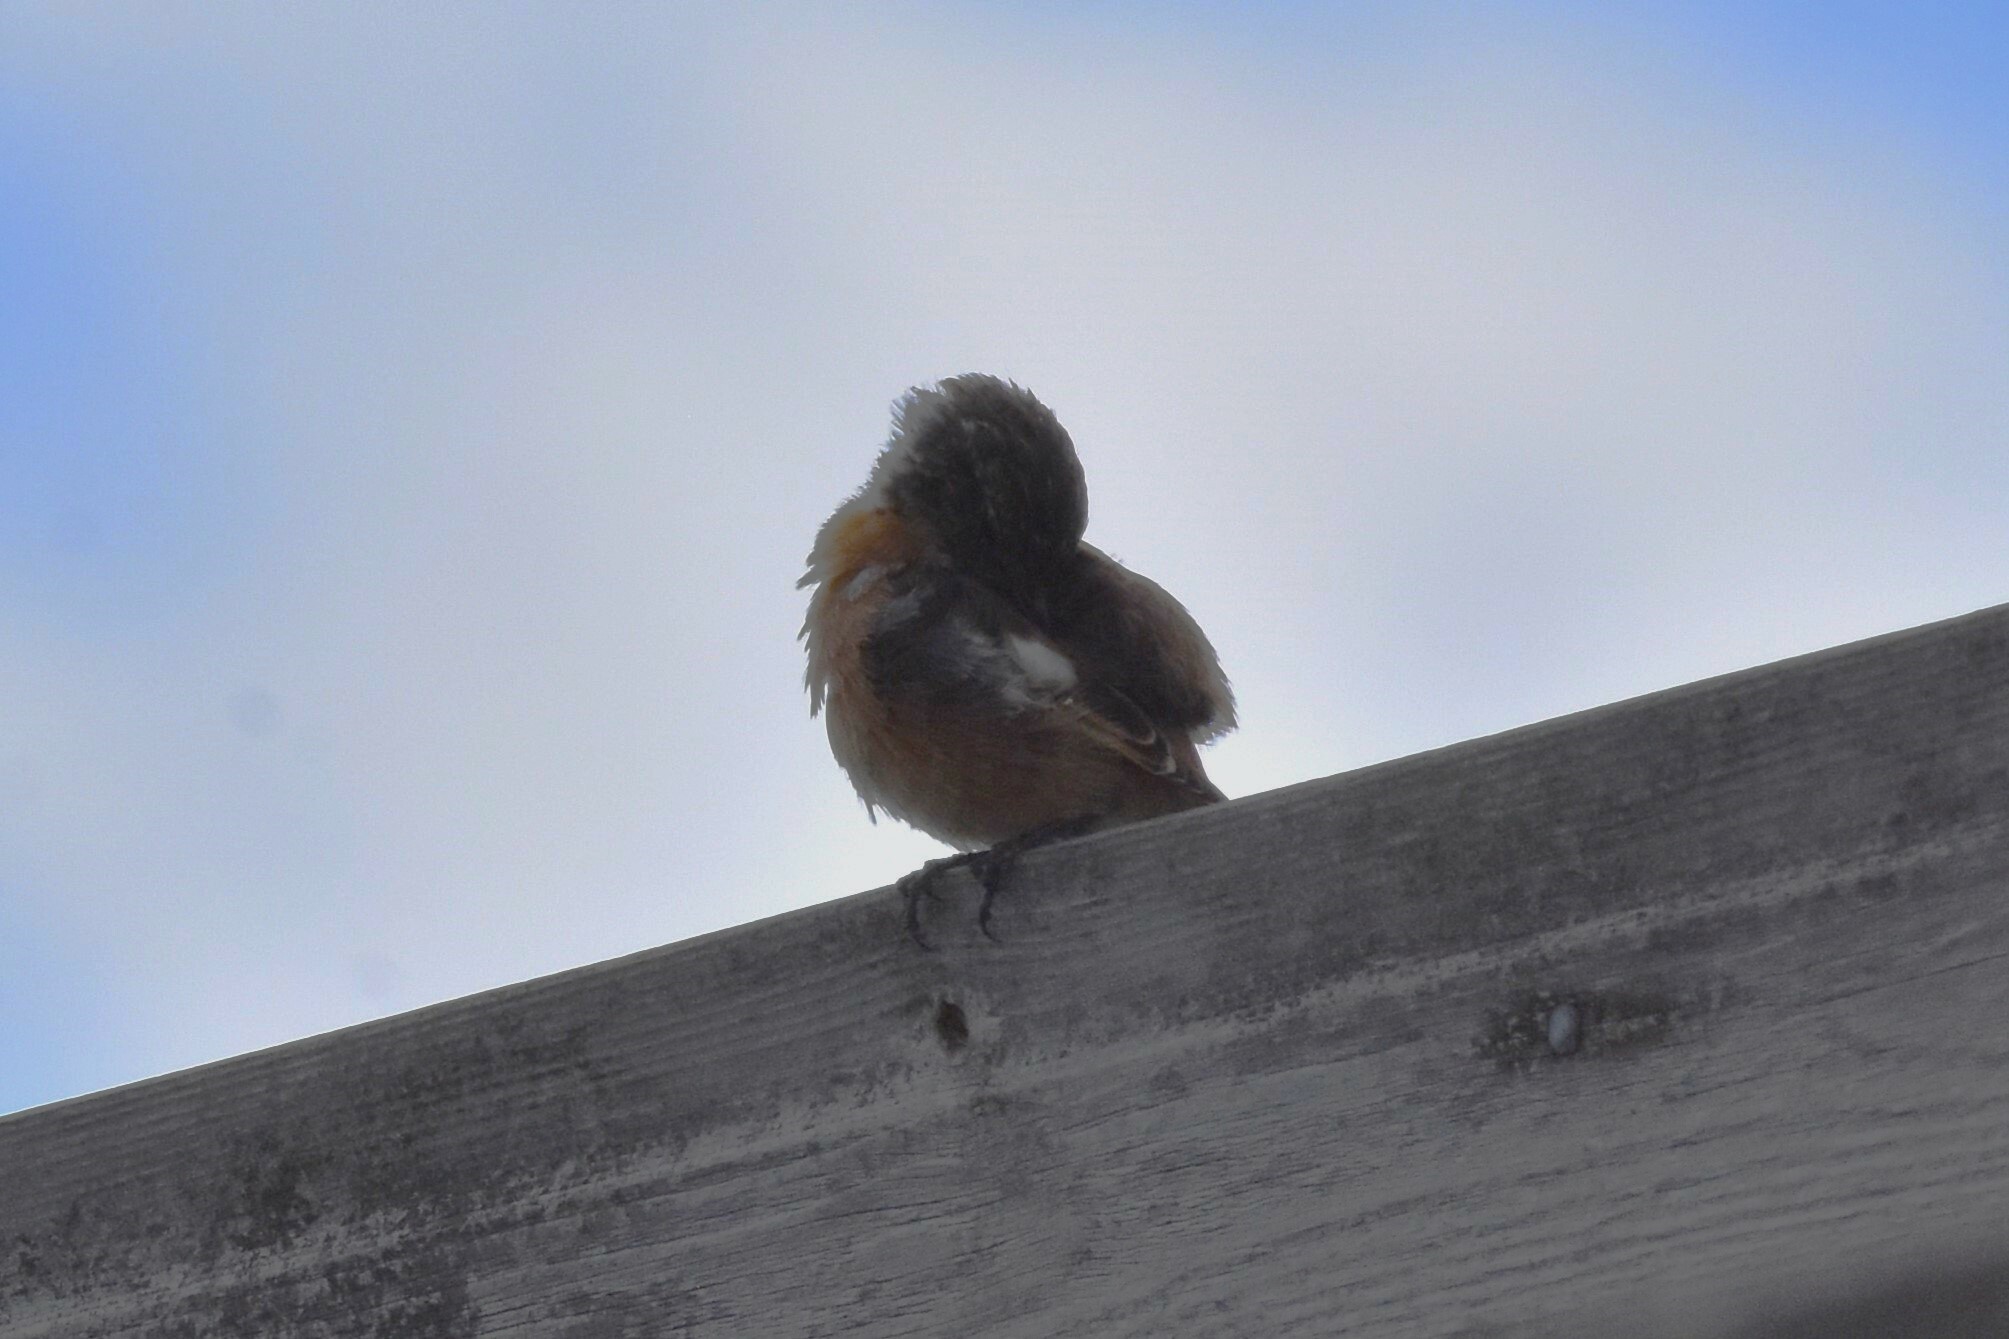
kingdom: Animalia
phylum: Chordata
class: Aves
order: Passeriformes
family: Muscicapidae
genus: Saxicola
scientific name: Saxicola rubicola
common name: European stonechat
